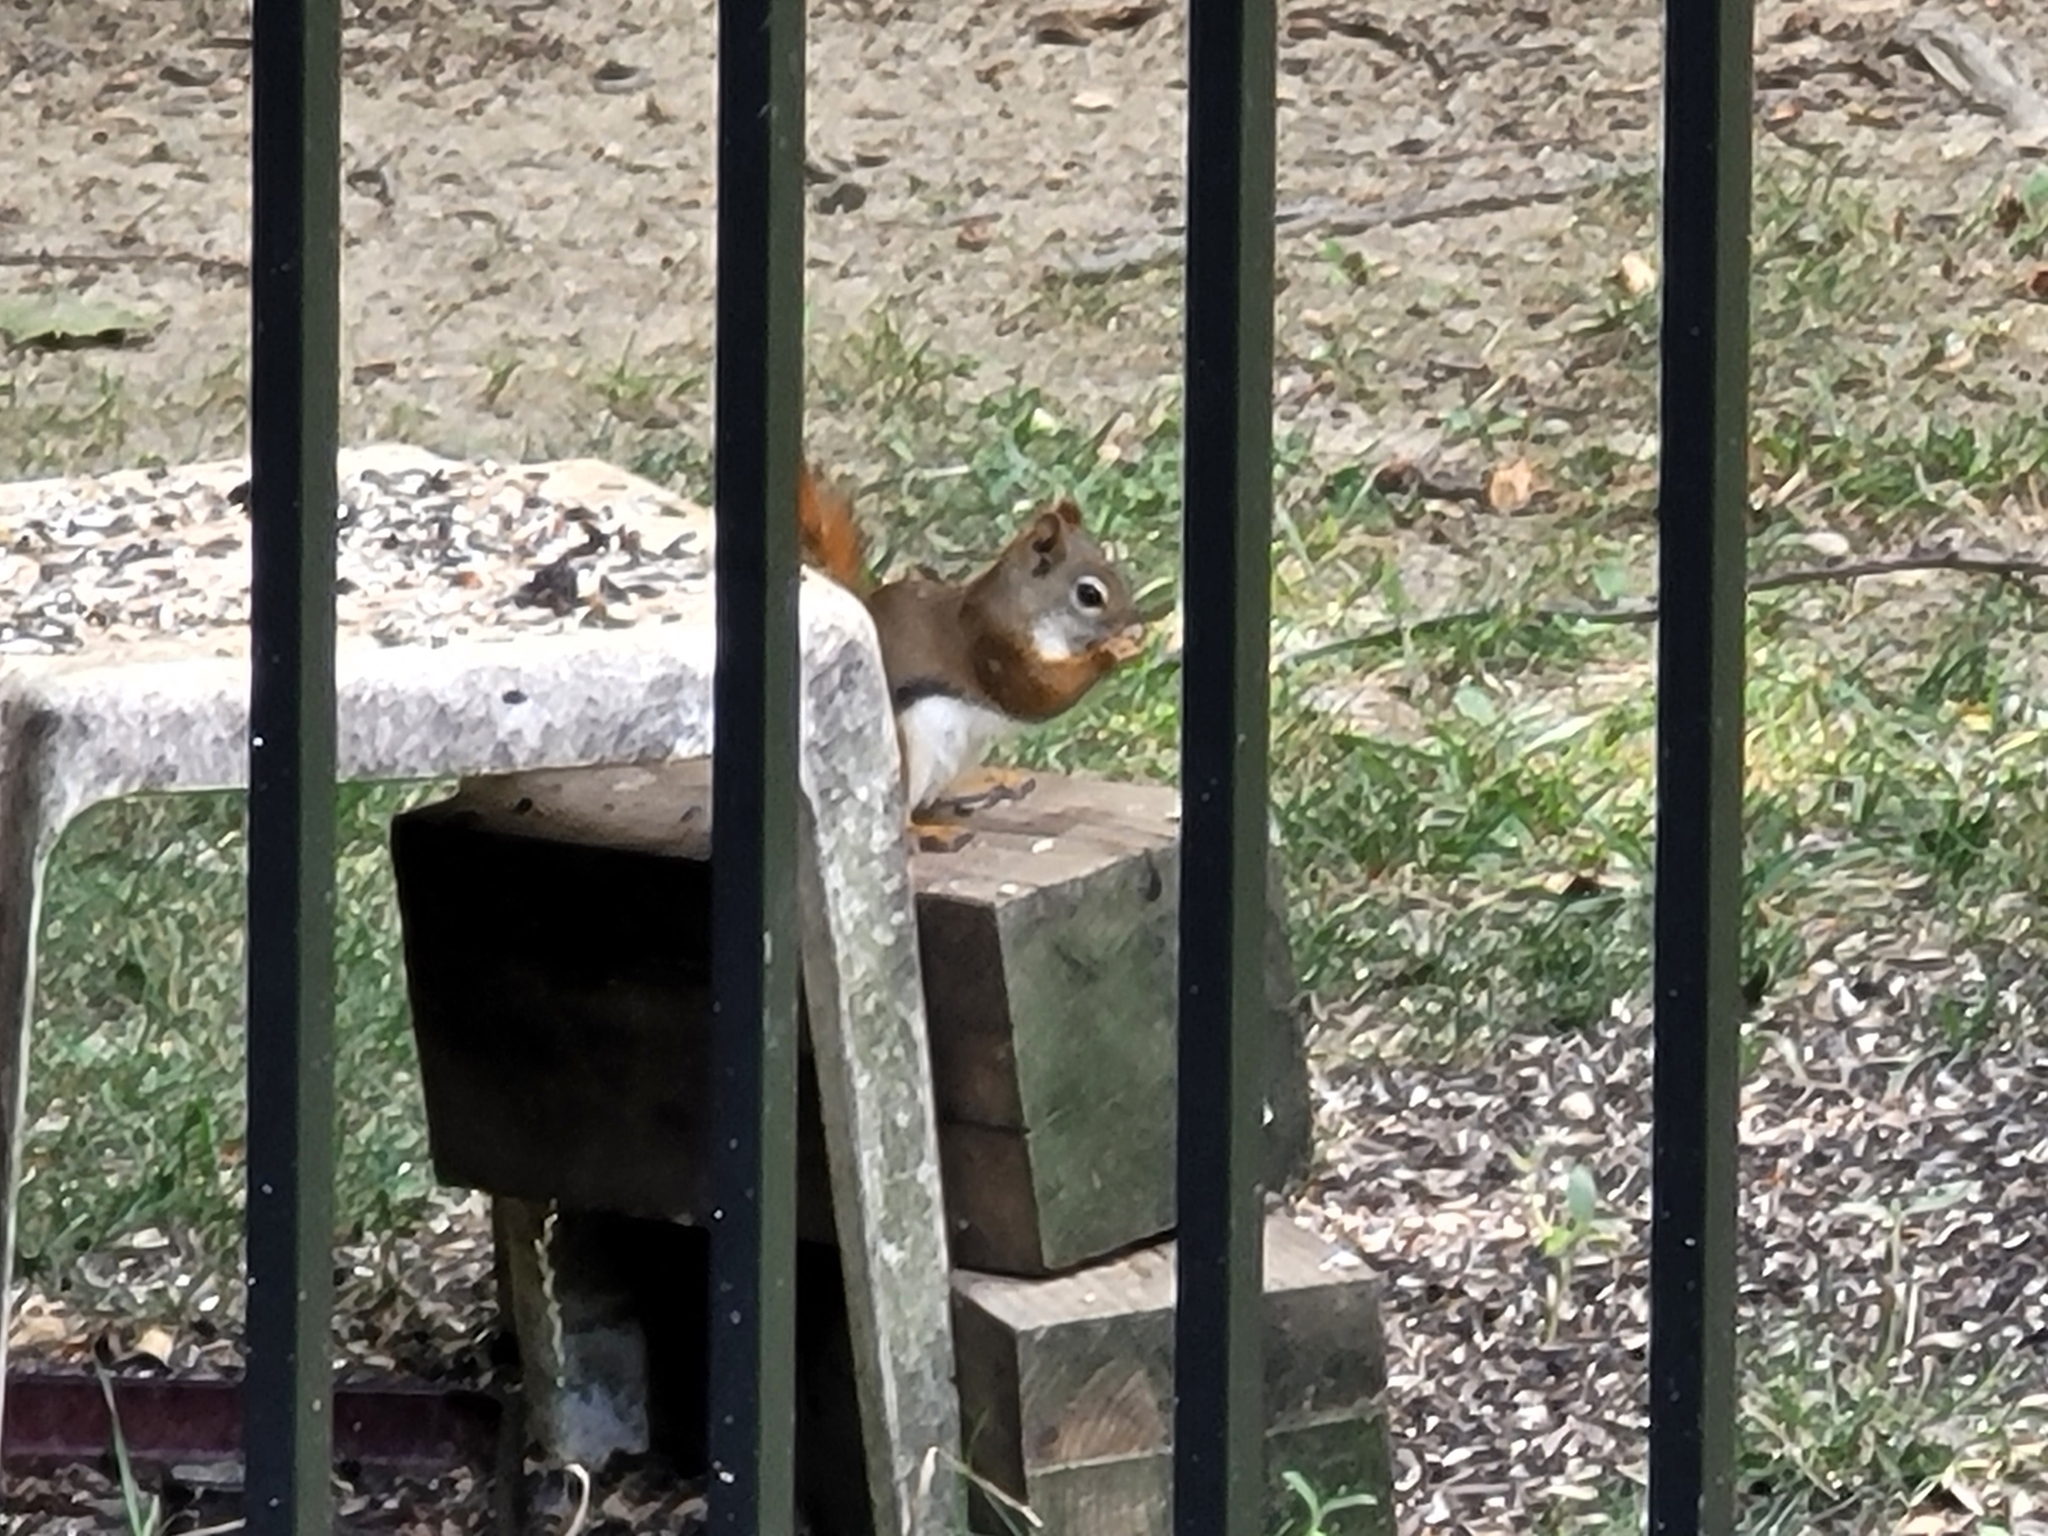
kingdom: Animalia
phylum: Chordata
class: Mammalia
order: Rodentia
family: Sciuridae
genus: Tamiasciurus
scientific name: Tamiasciurus hudsonicus
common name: Red squirrel
